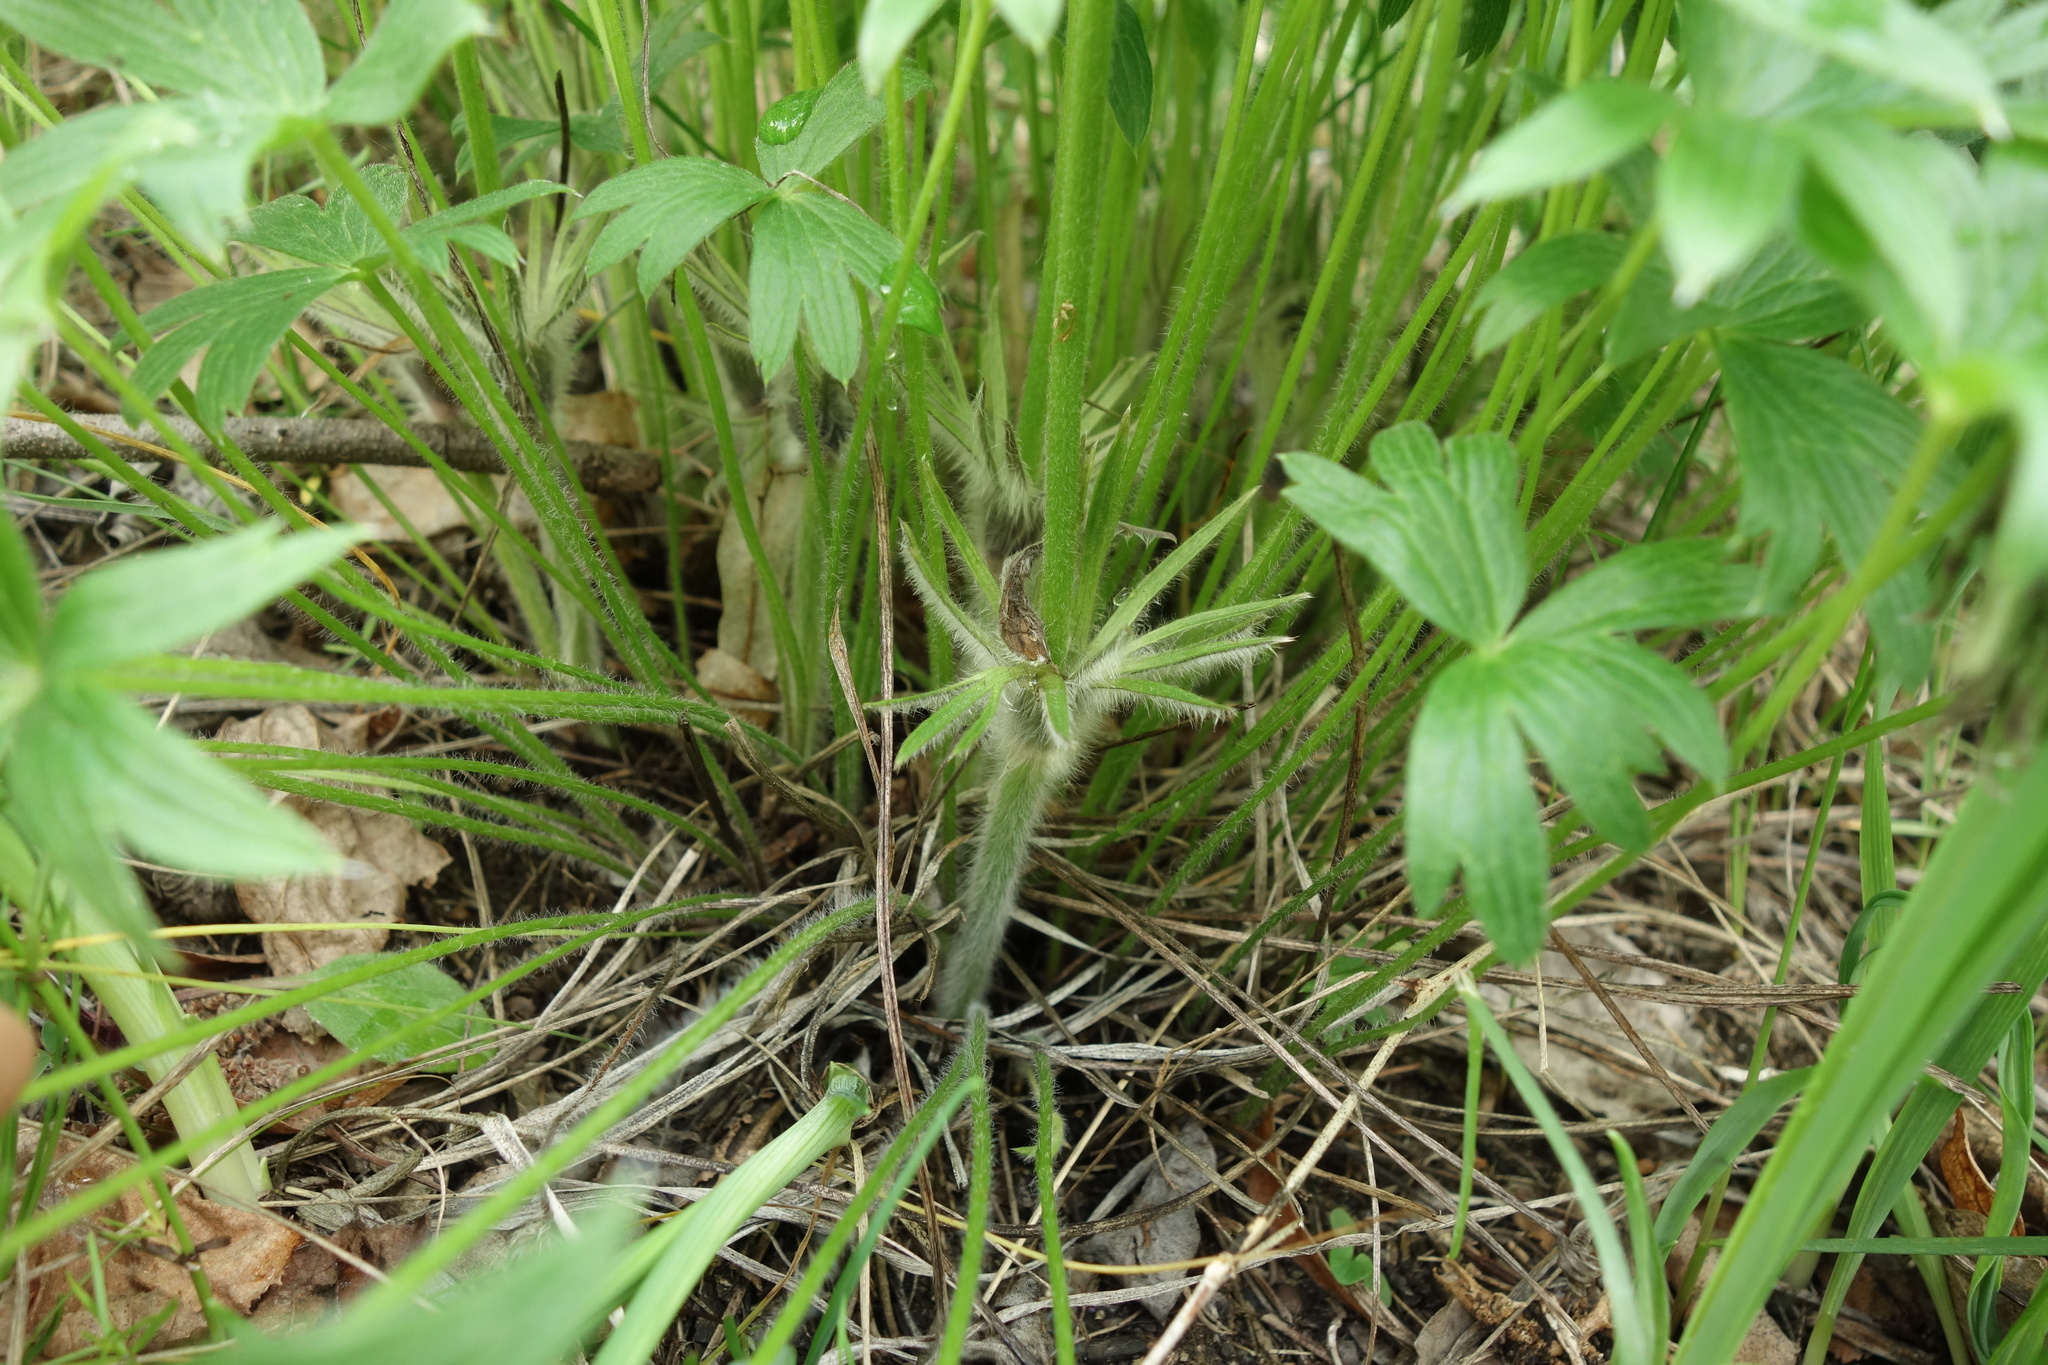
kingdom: Plantae
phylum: Tracheophyta
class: Magnoliopsida
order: Ranunculales
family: Ranunculaceae
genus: Pulsatilla
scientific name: Pulsatilla patens
